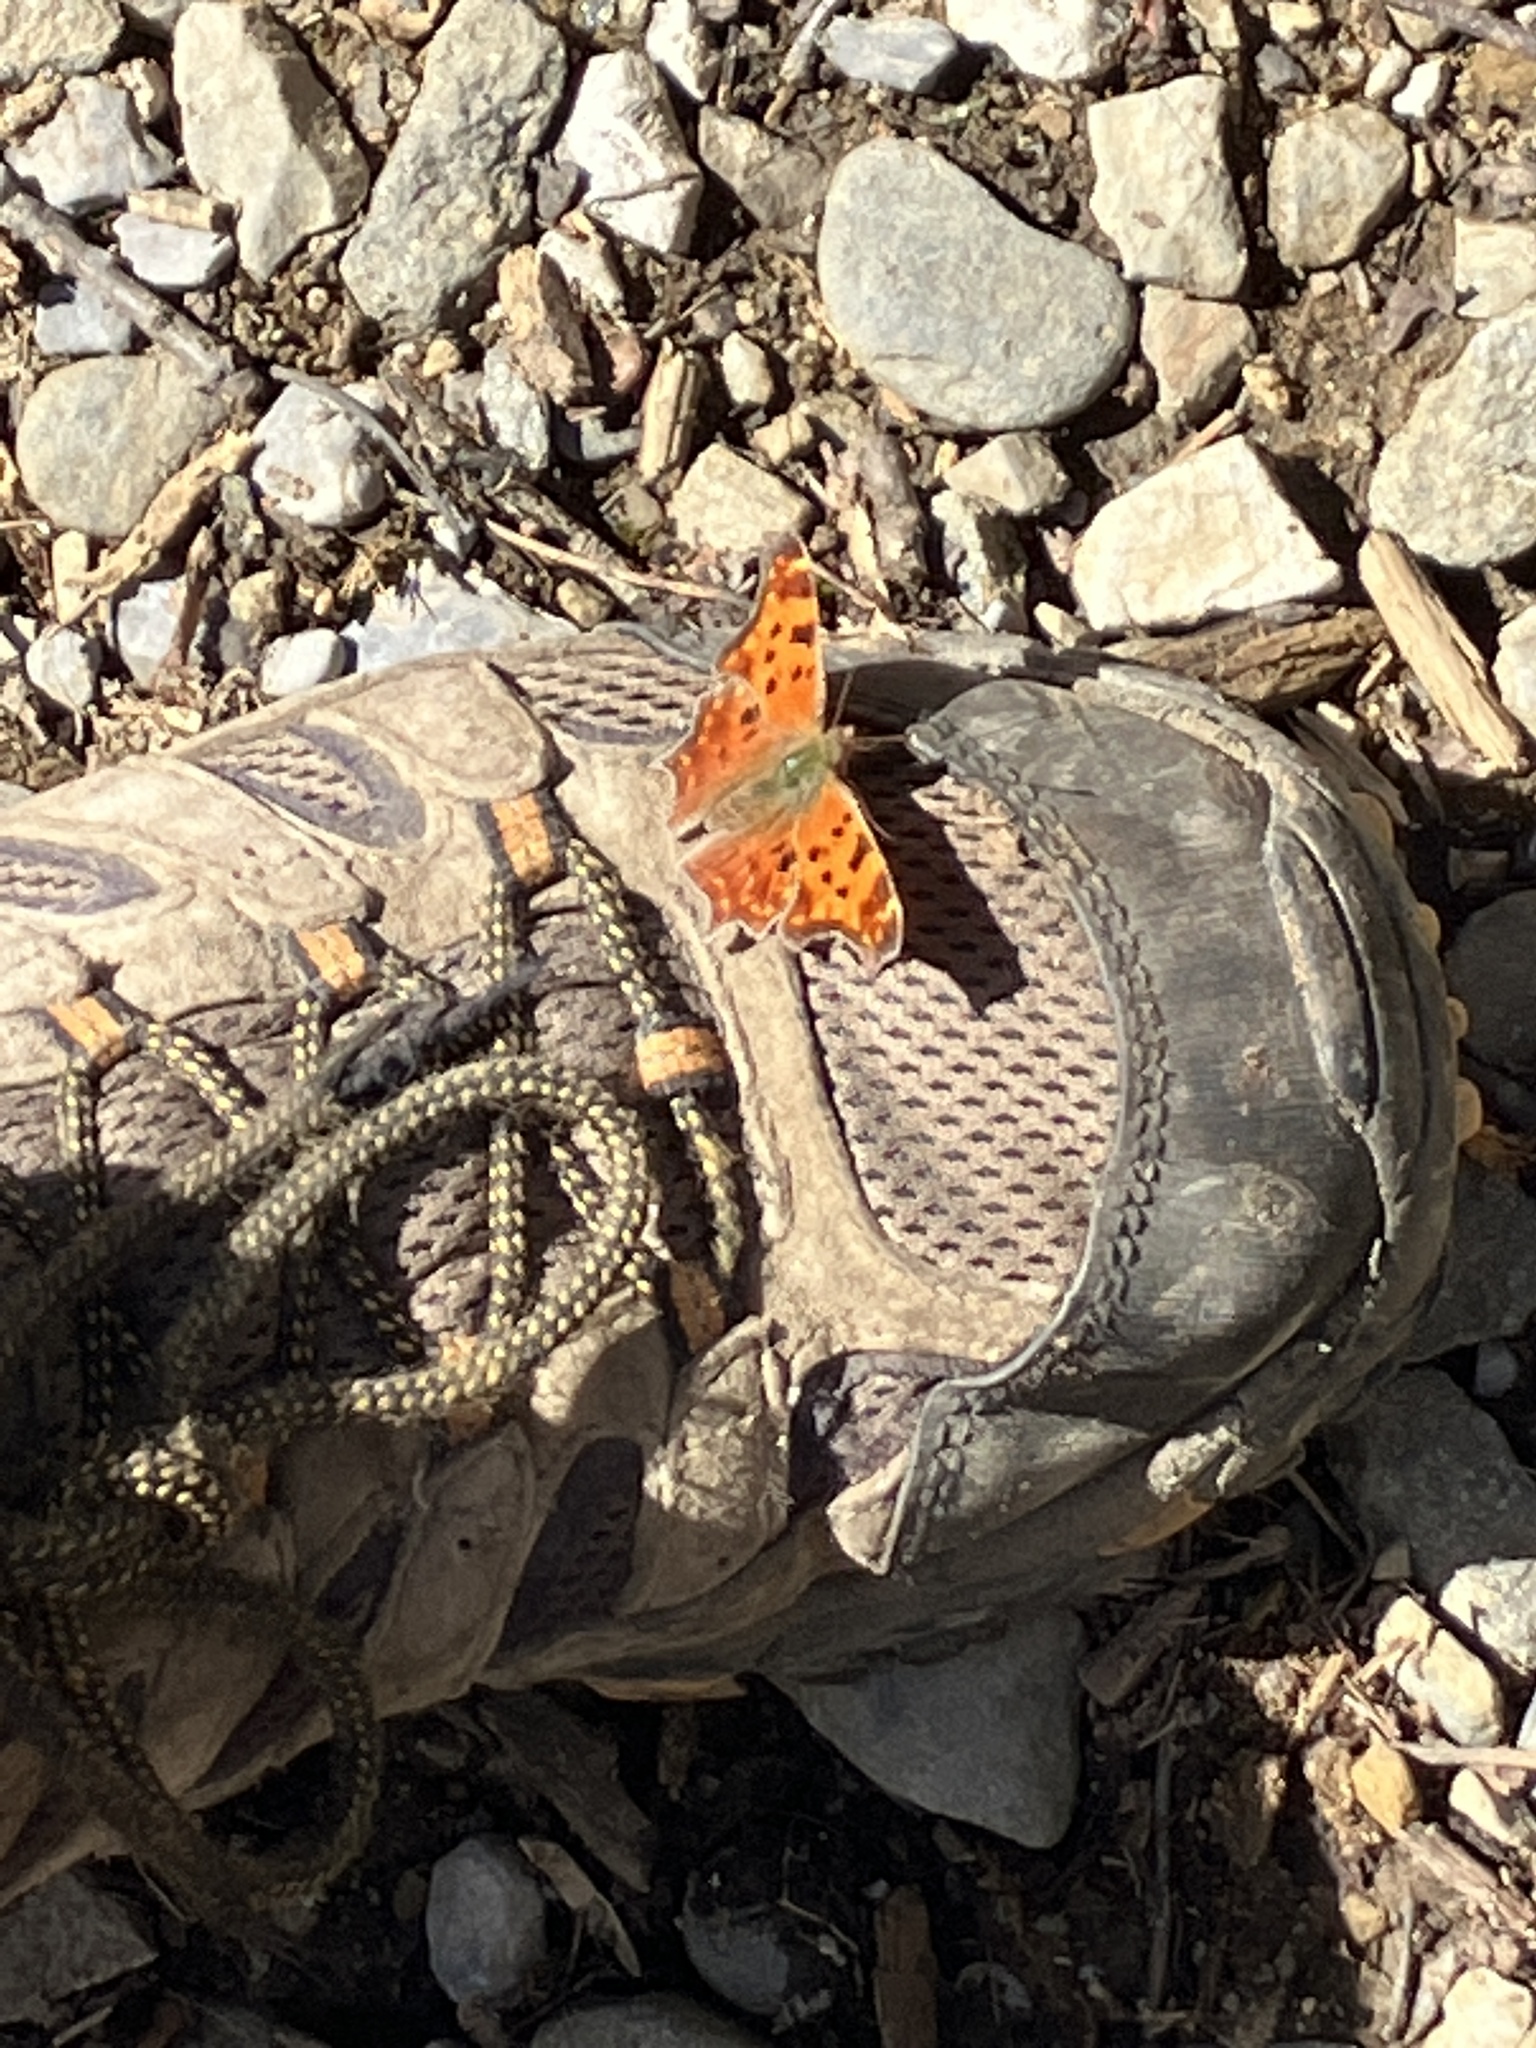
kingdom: Animalia
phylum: Arthropoda
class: Insecta
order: Lepidoptera
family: Nymphalidae
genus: Polygonia
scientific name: Polygonia comma
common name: Eastern comma
